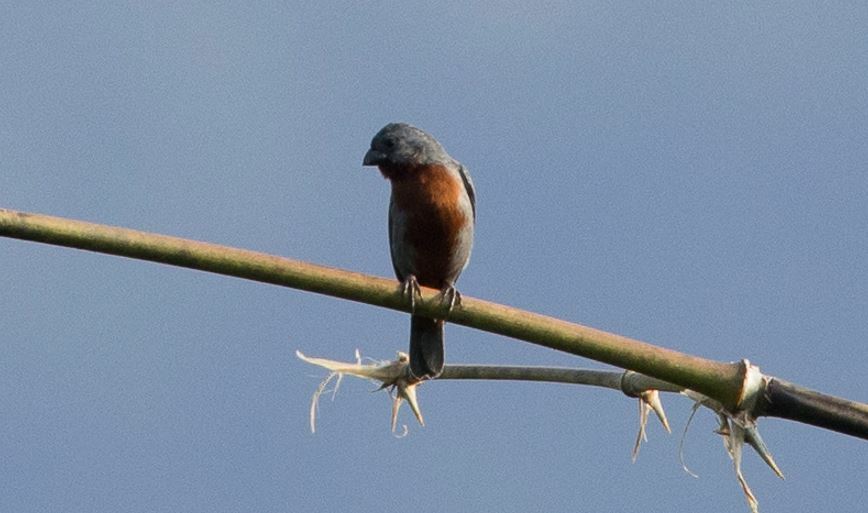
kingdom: Animalia
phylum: Chordata
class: Aves
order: Passeriformes
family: Thraupidae
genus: Sporophila
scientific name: Sporophila castaneiventris
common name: Chestnut-bellied seedeater
